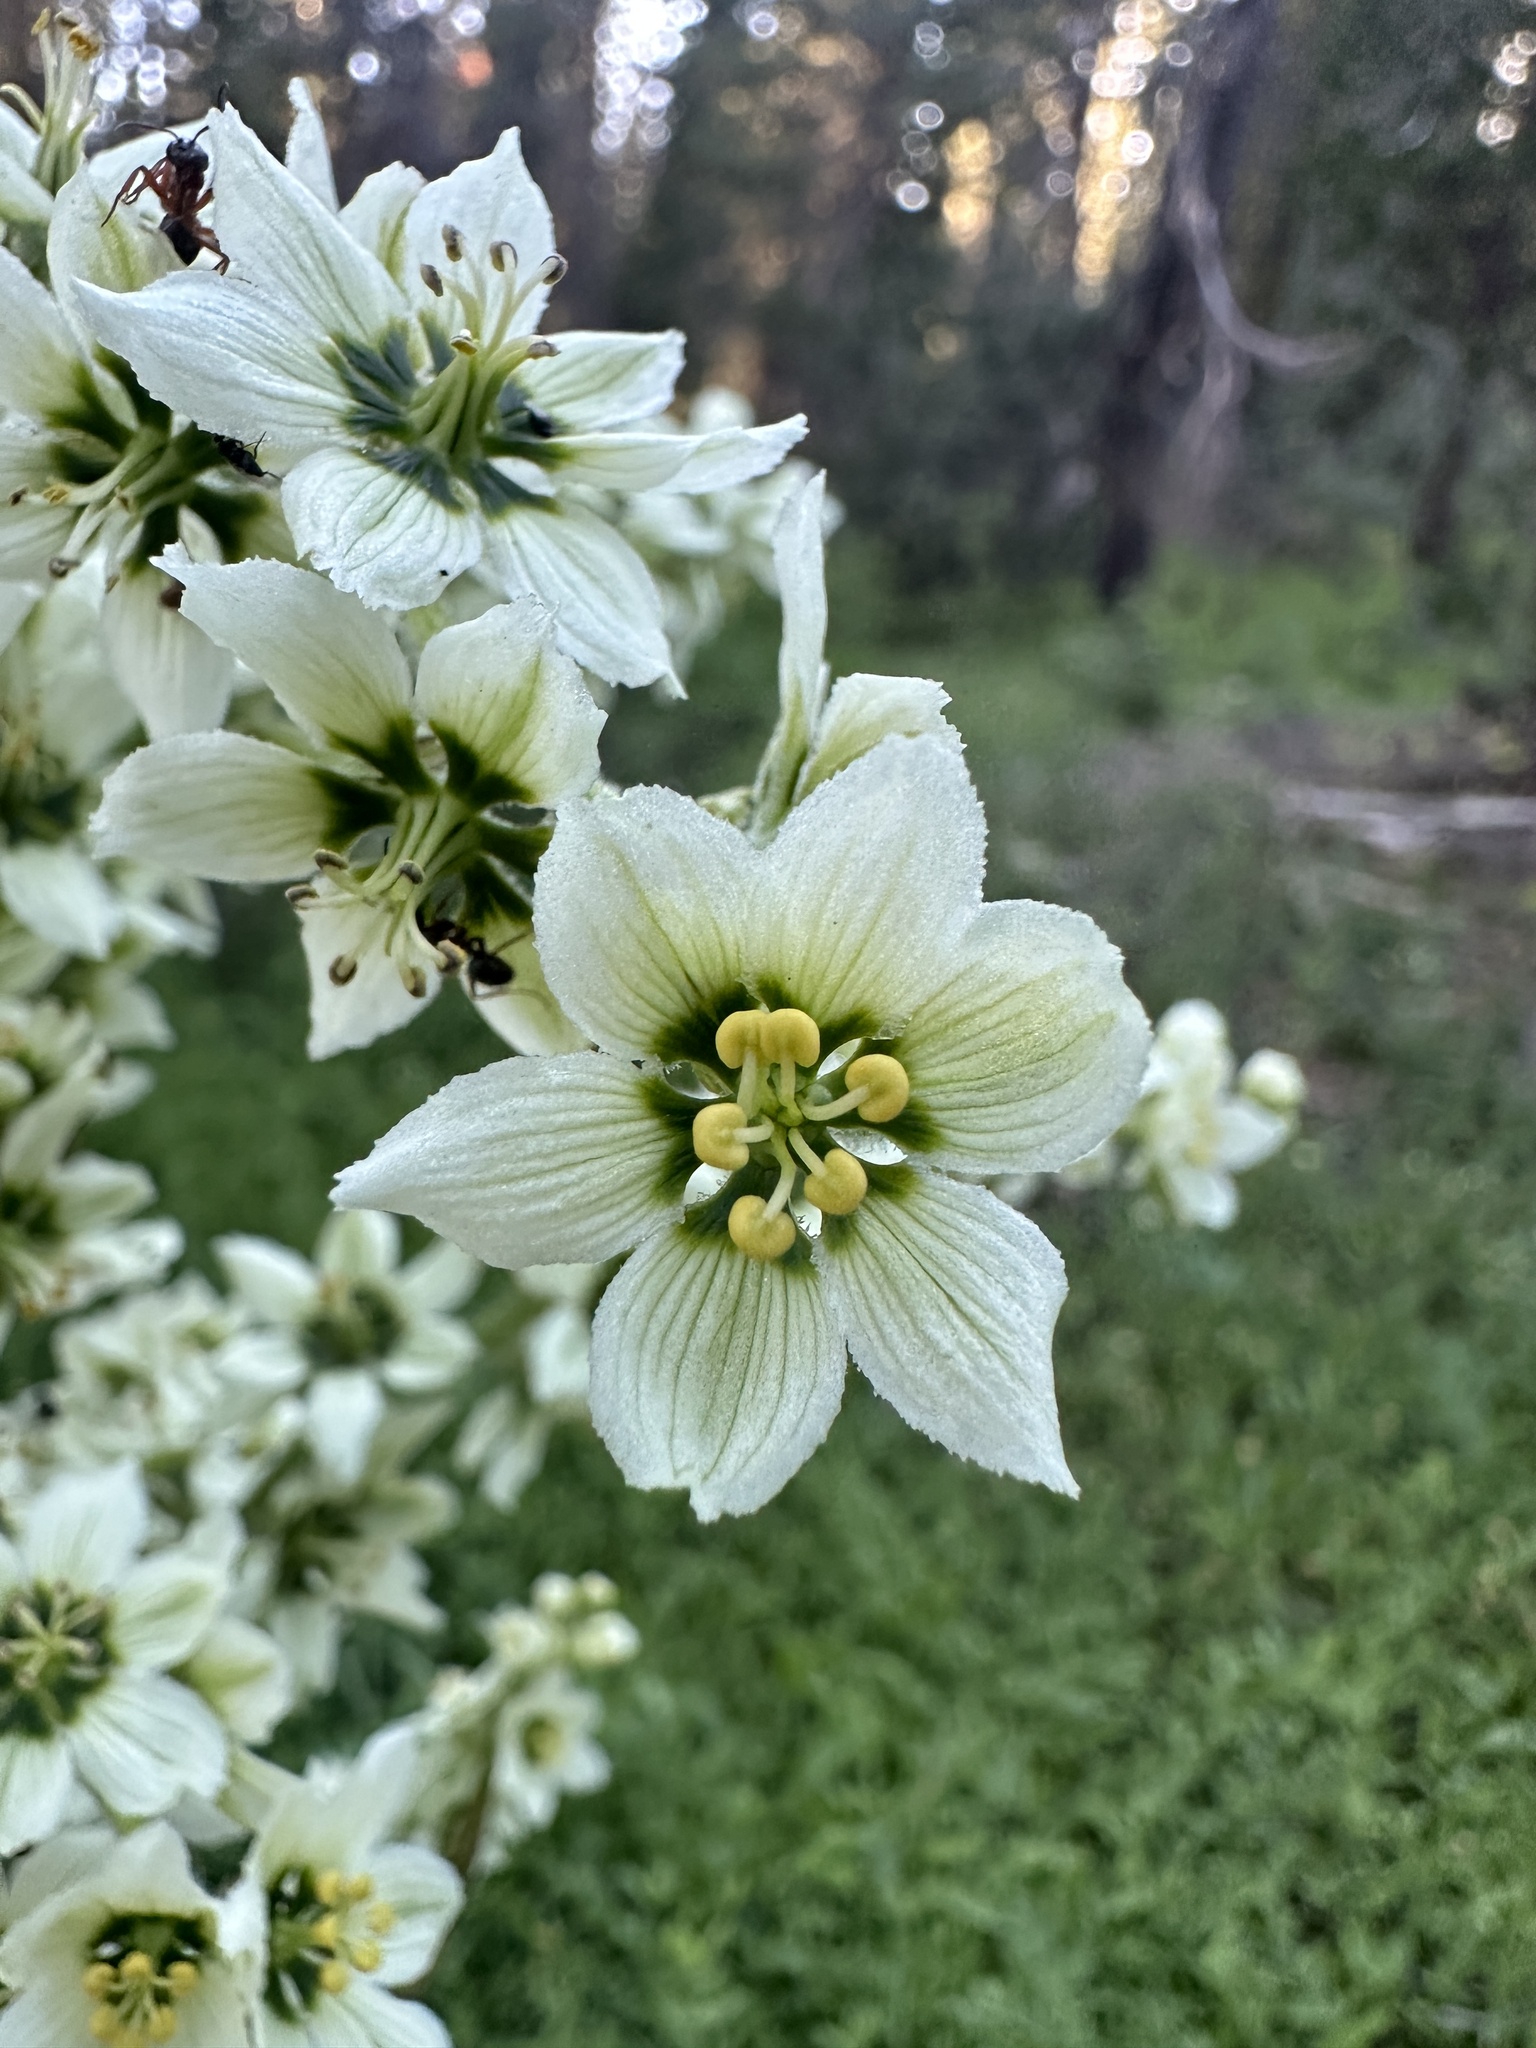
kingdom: Plantae
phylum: Tracheophyta
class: Liliopsida
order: Liliales
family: Melanthiaceae
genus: Veratrum
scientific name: Veratrum californicum
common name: California veratrum
